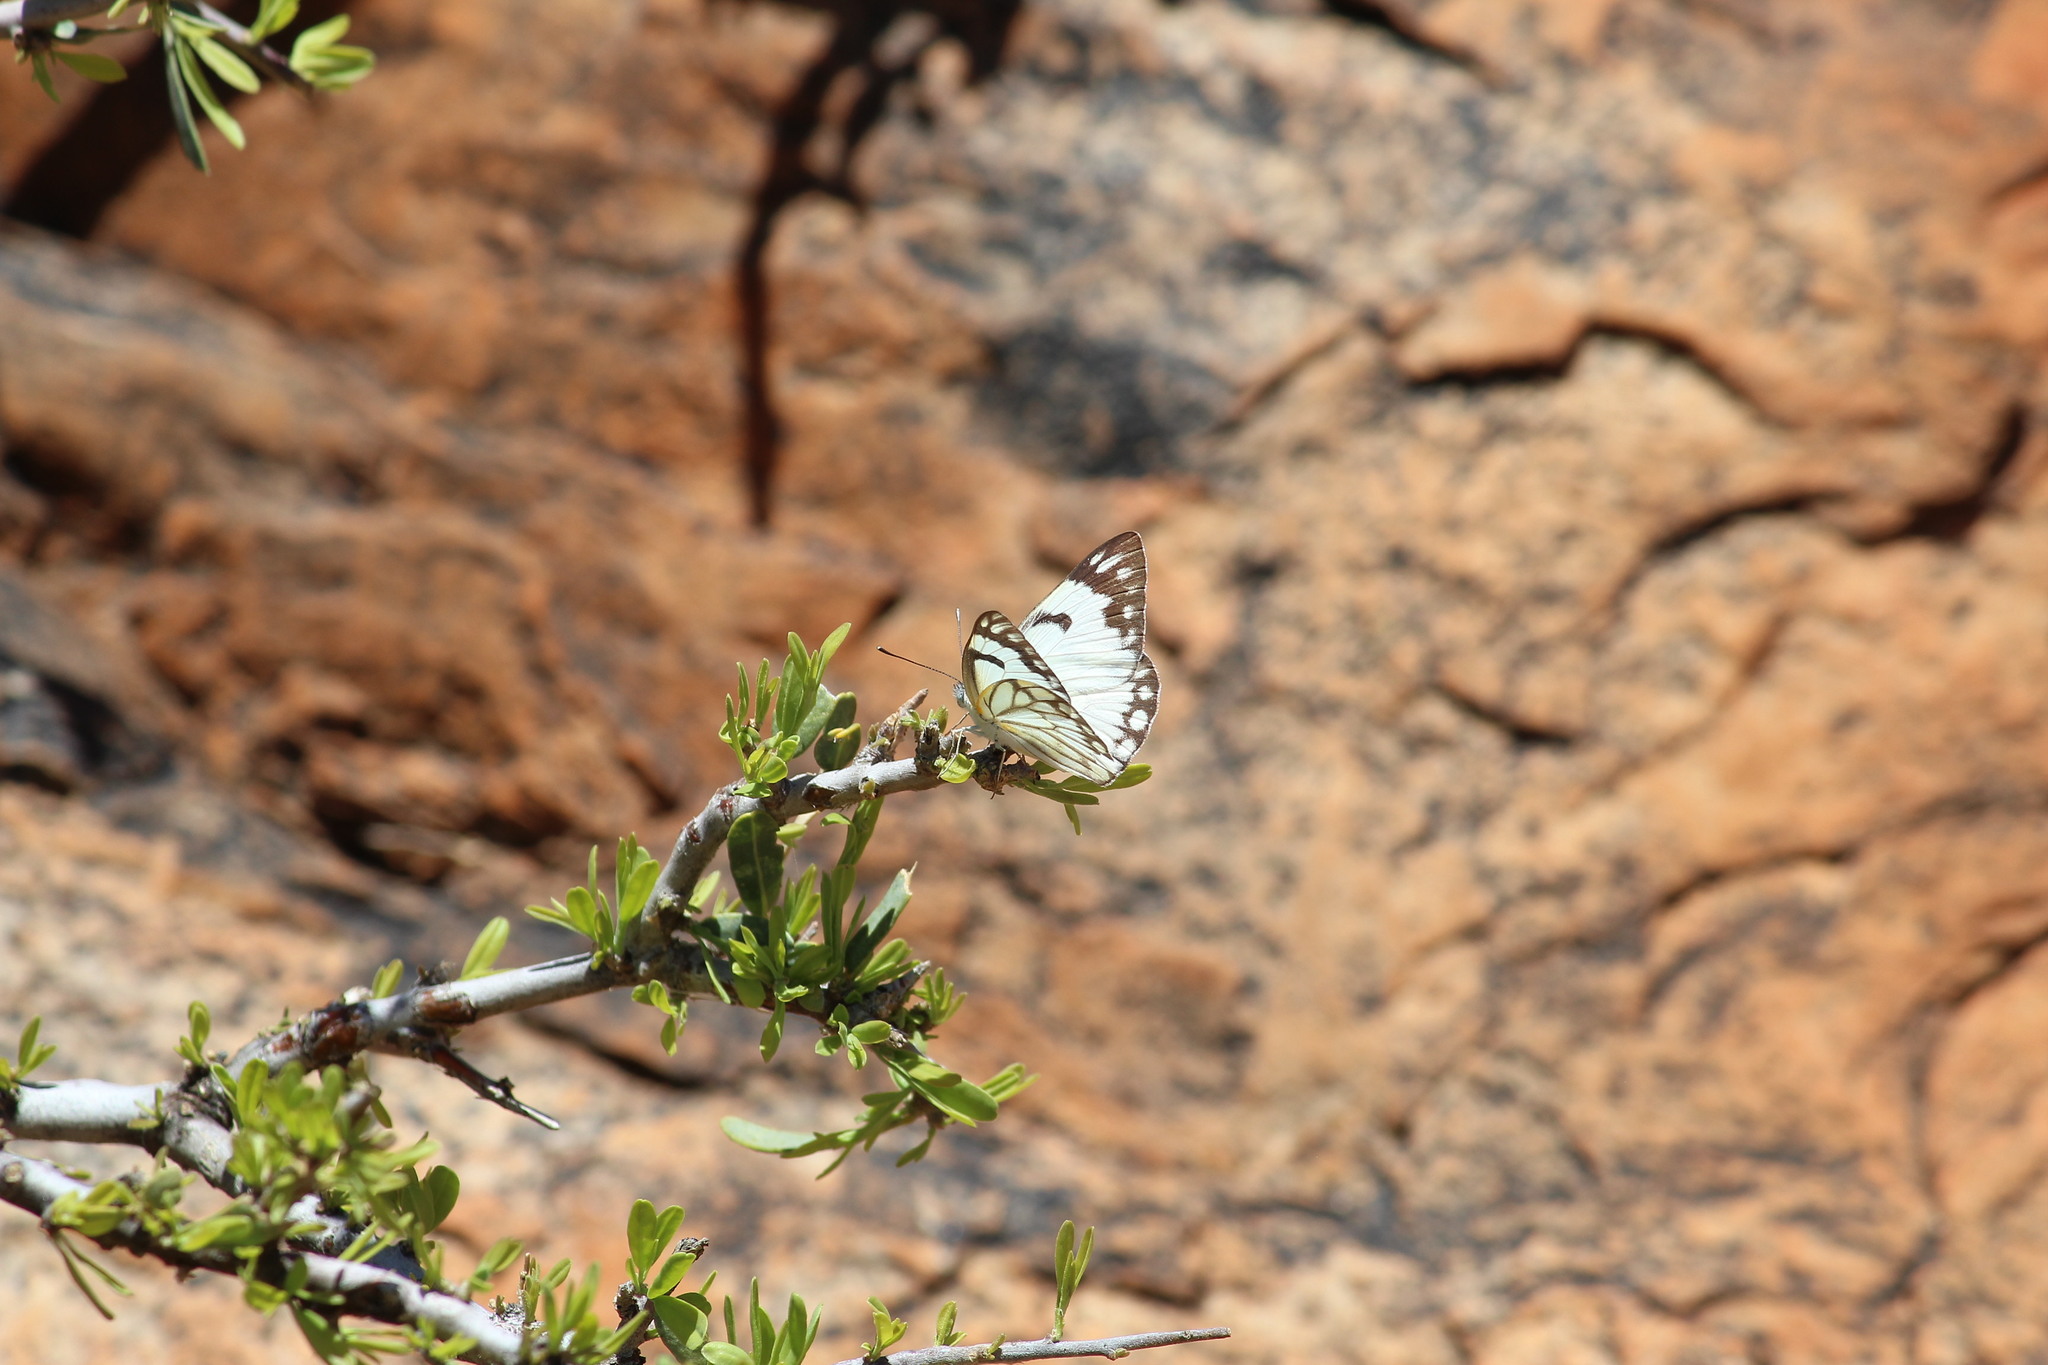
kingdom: Animalia
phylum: Arthropoda
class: Insecta
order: Lepidoptera
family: Pieridae
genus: Belenois
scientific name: Belenois aurota
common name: Brown-veined white
